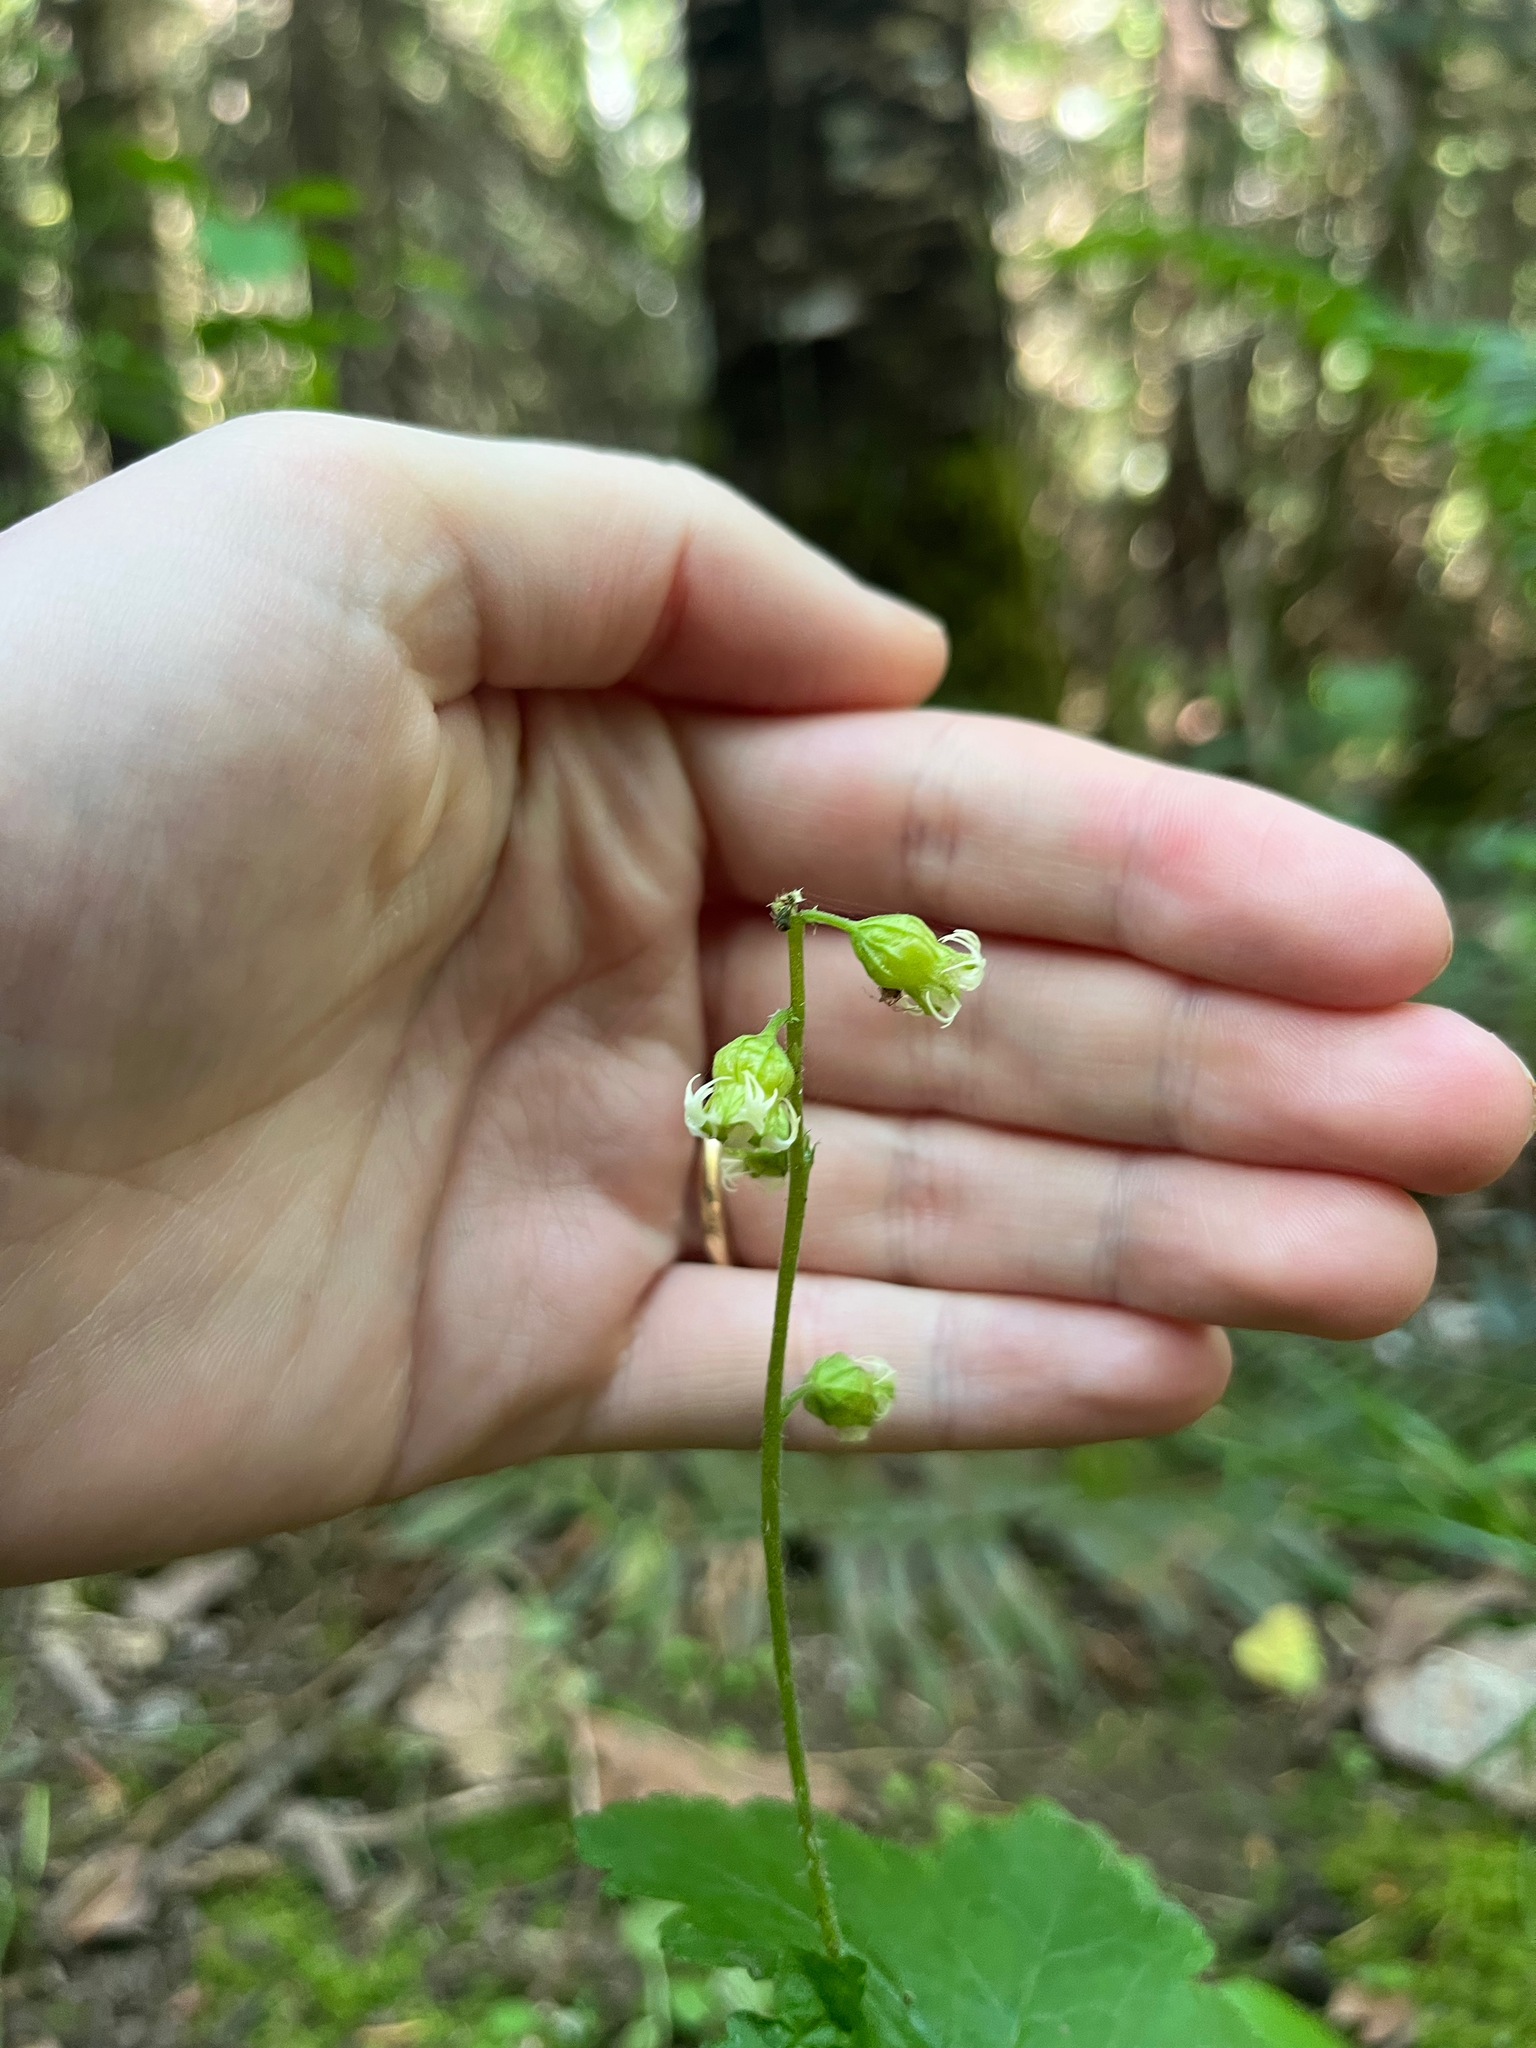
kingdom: Plantae
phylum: Tracheophyta
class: Magnoliopsida
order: Saxifragales
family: Saxifragaceae
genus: Tellima
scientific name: Tellima grandiflora
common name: Fringecups
